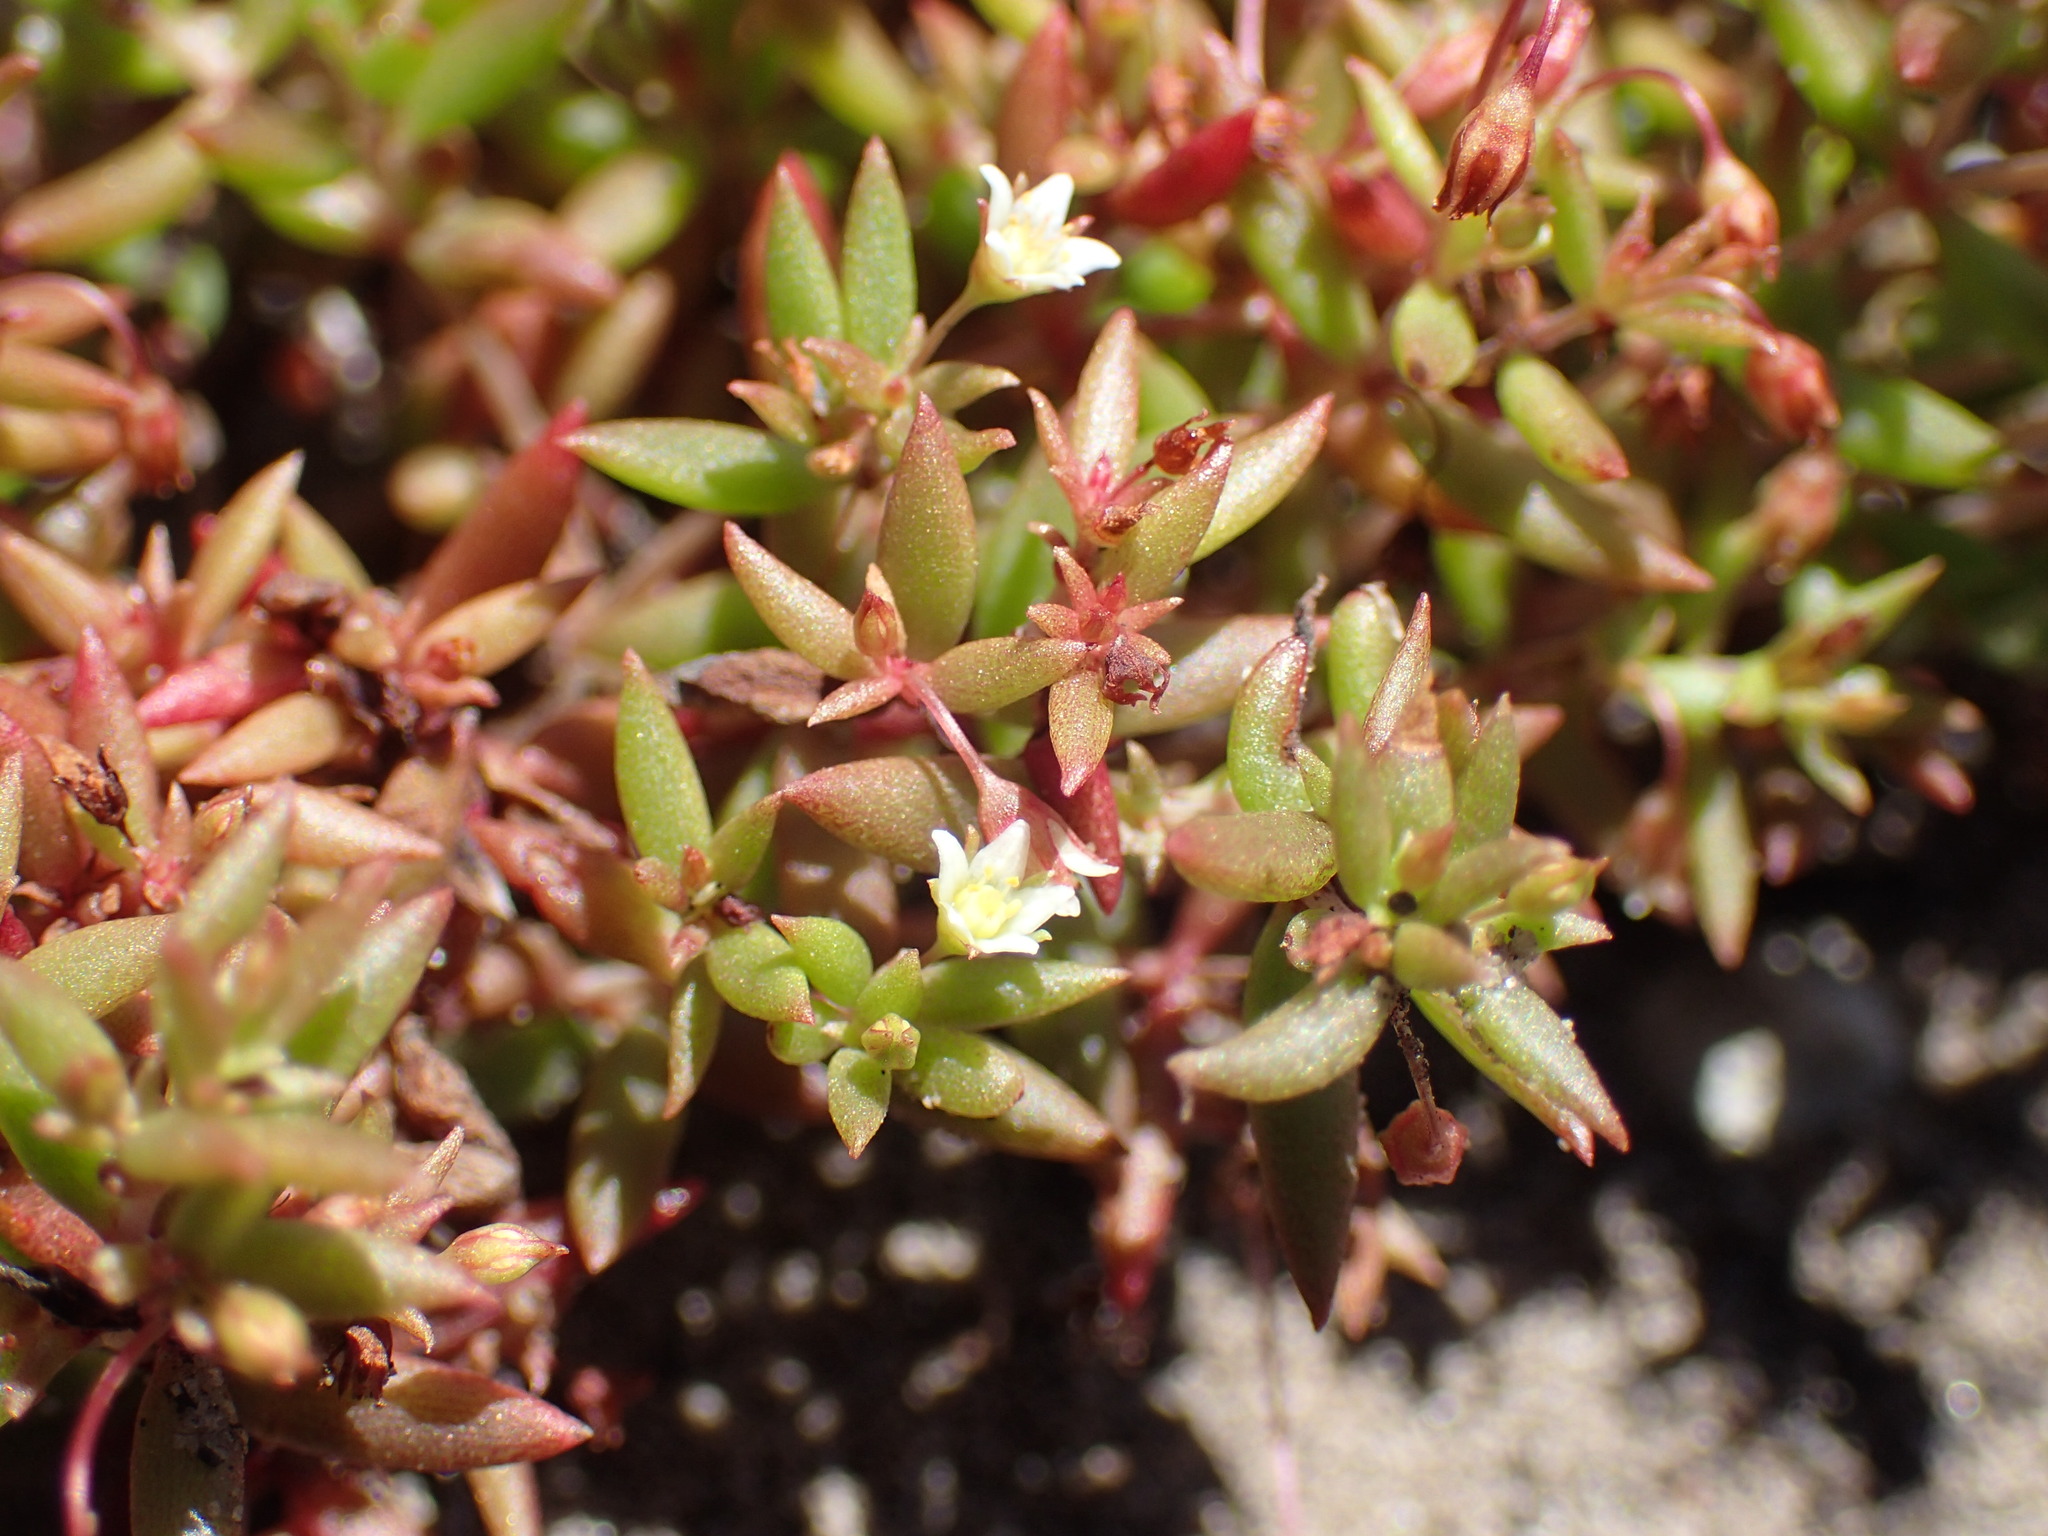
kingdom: Plantae
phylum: Tracheophyta
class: Magnoliopsida
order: Saxifragales
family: Crassulaceae
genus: Crassula
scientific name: Crassula expansa
